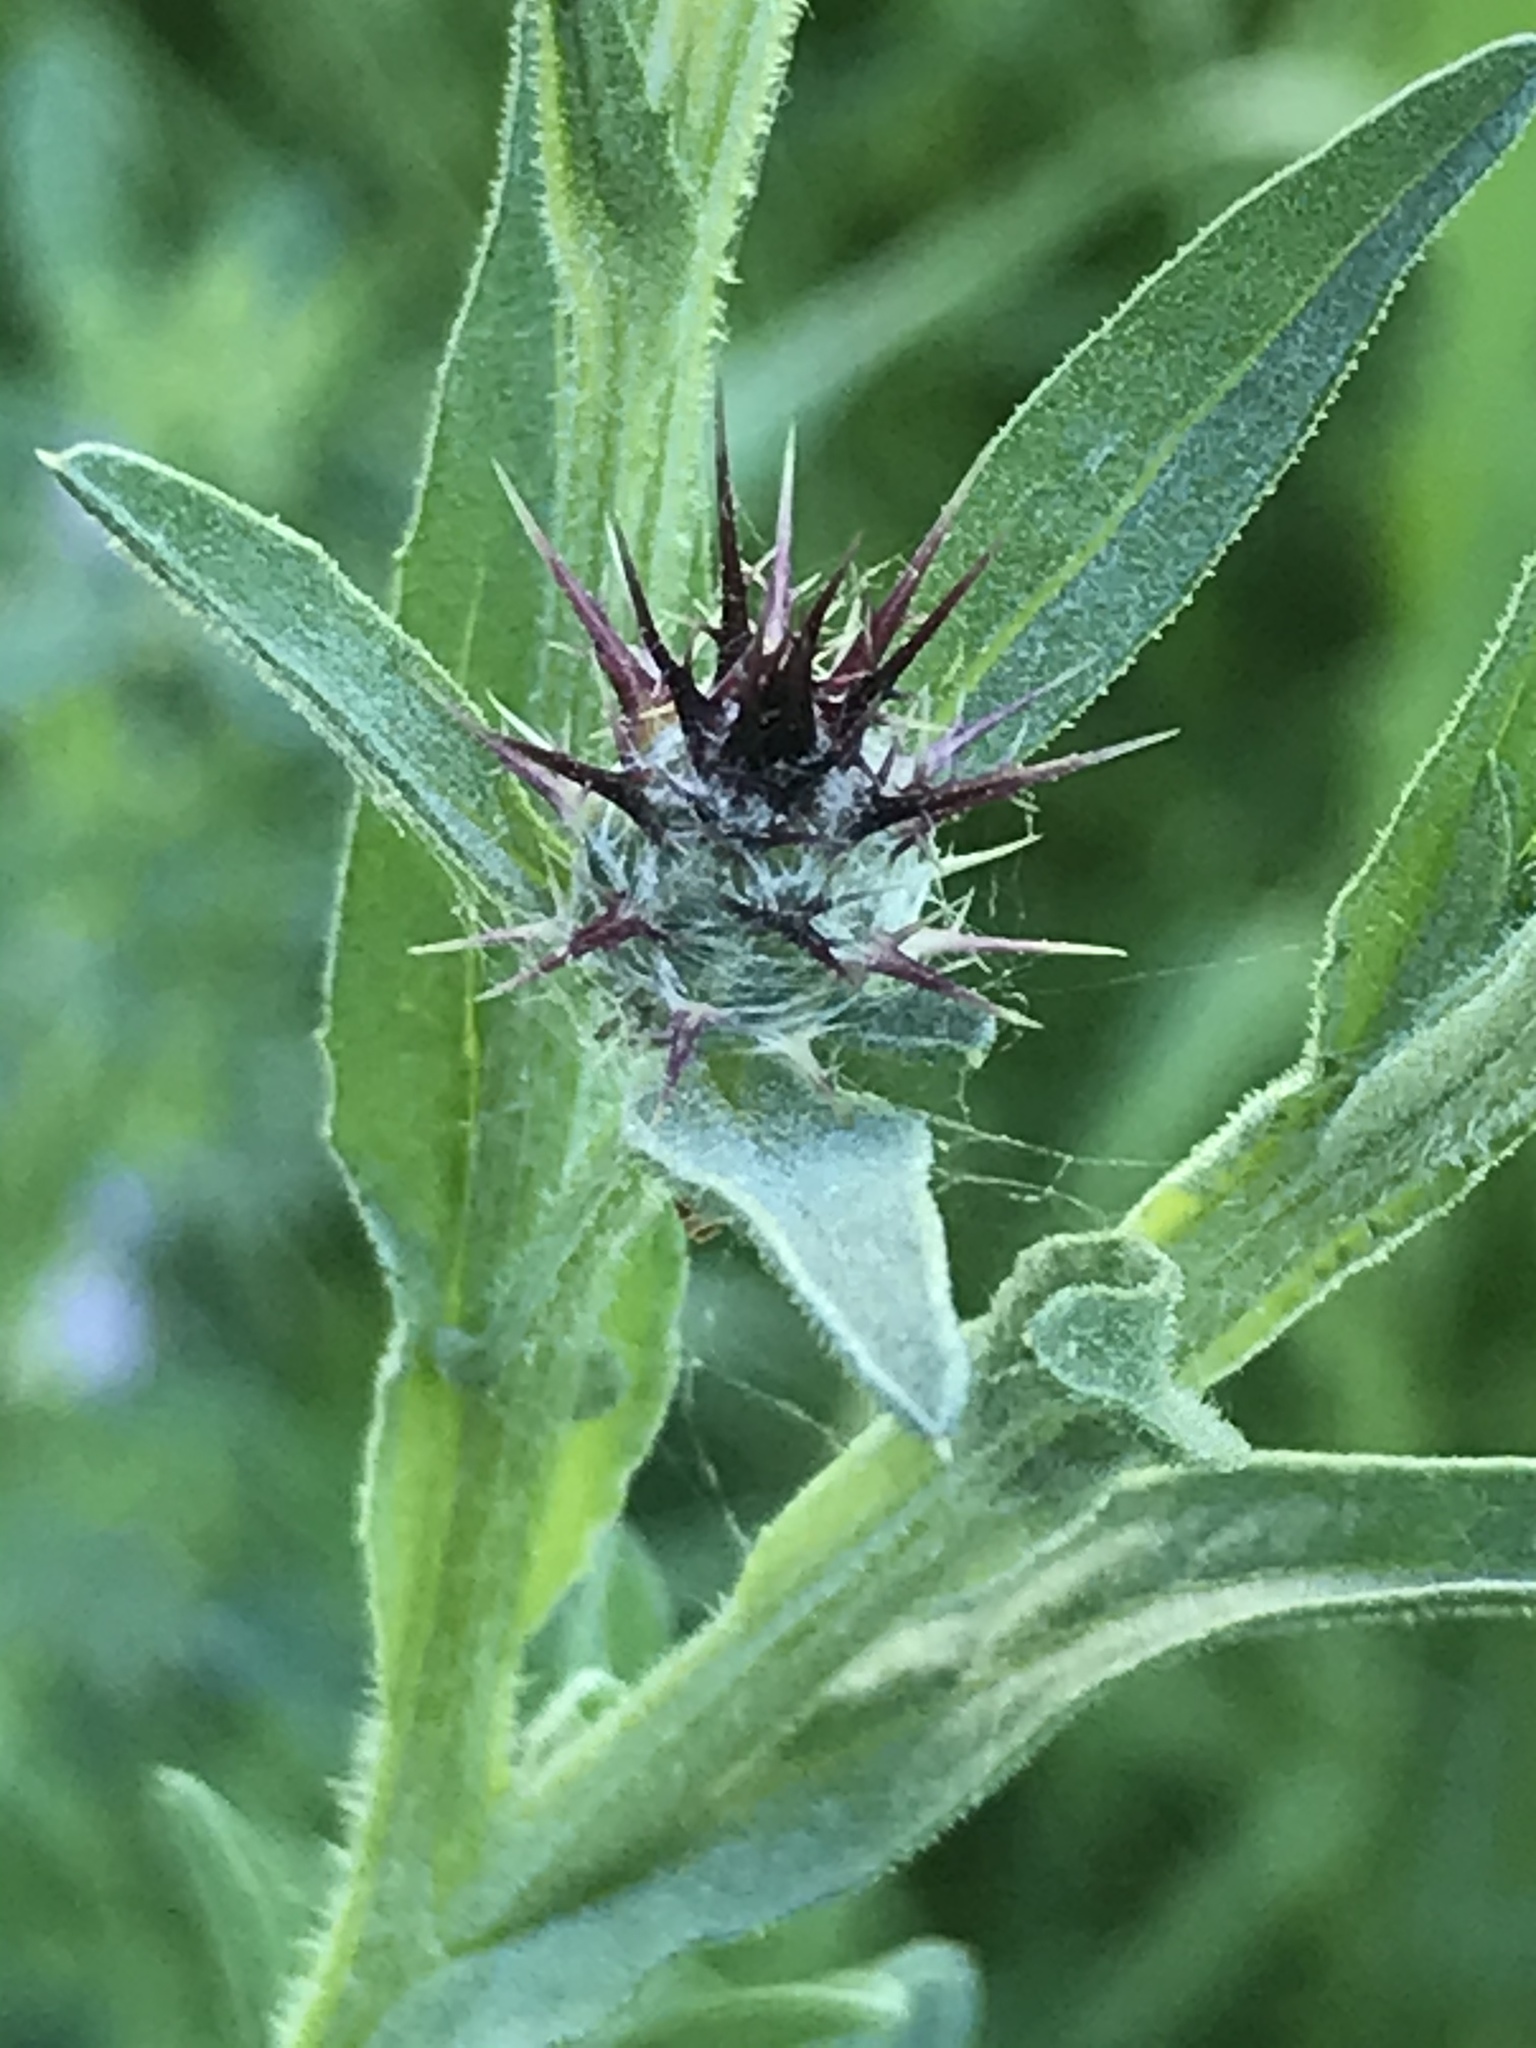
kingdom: Plantae
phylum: Tracheophyta
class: Magnoliopsida
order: Asterales
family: Asteraceae
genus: Centaurea
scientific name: Centaurea melitensis
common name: Maltese star-thistle
